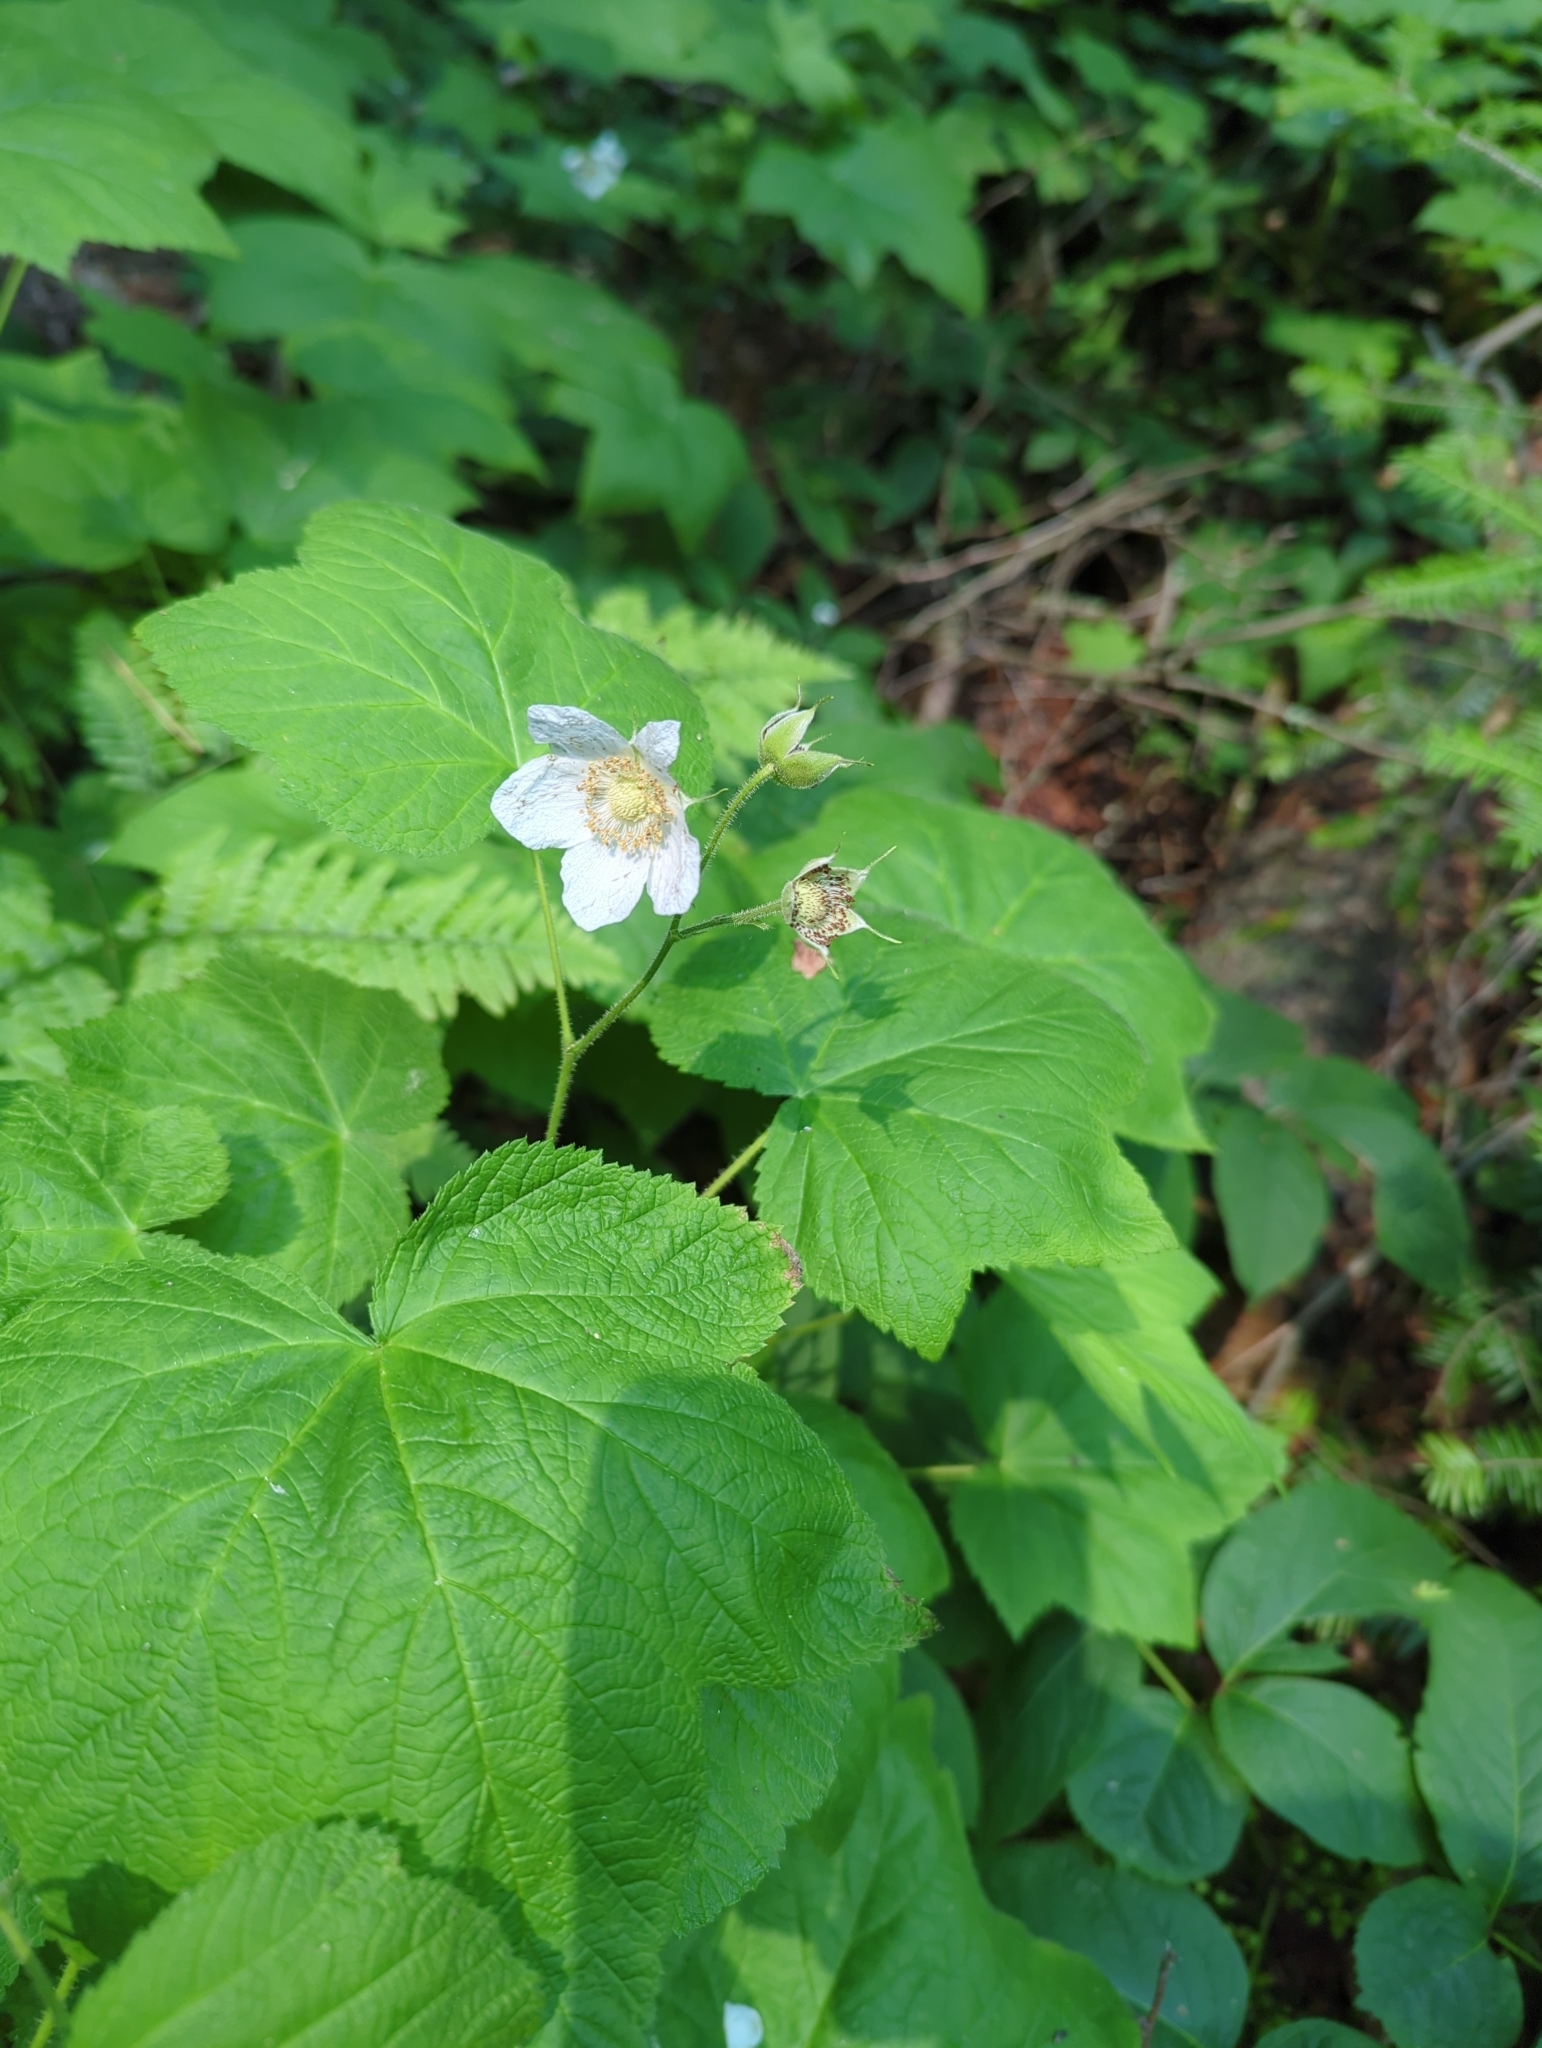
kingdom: Plantae
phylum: Tracheophyta
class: Magnoliopsida
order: Rosales
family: Rosaceae
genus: Rubus
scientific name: Rubus parviflorus
